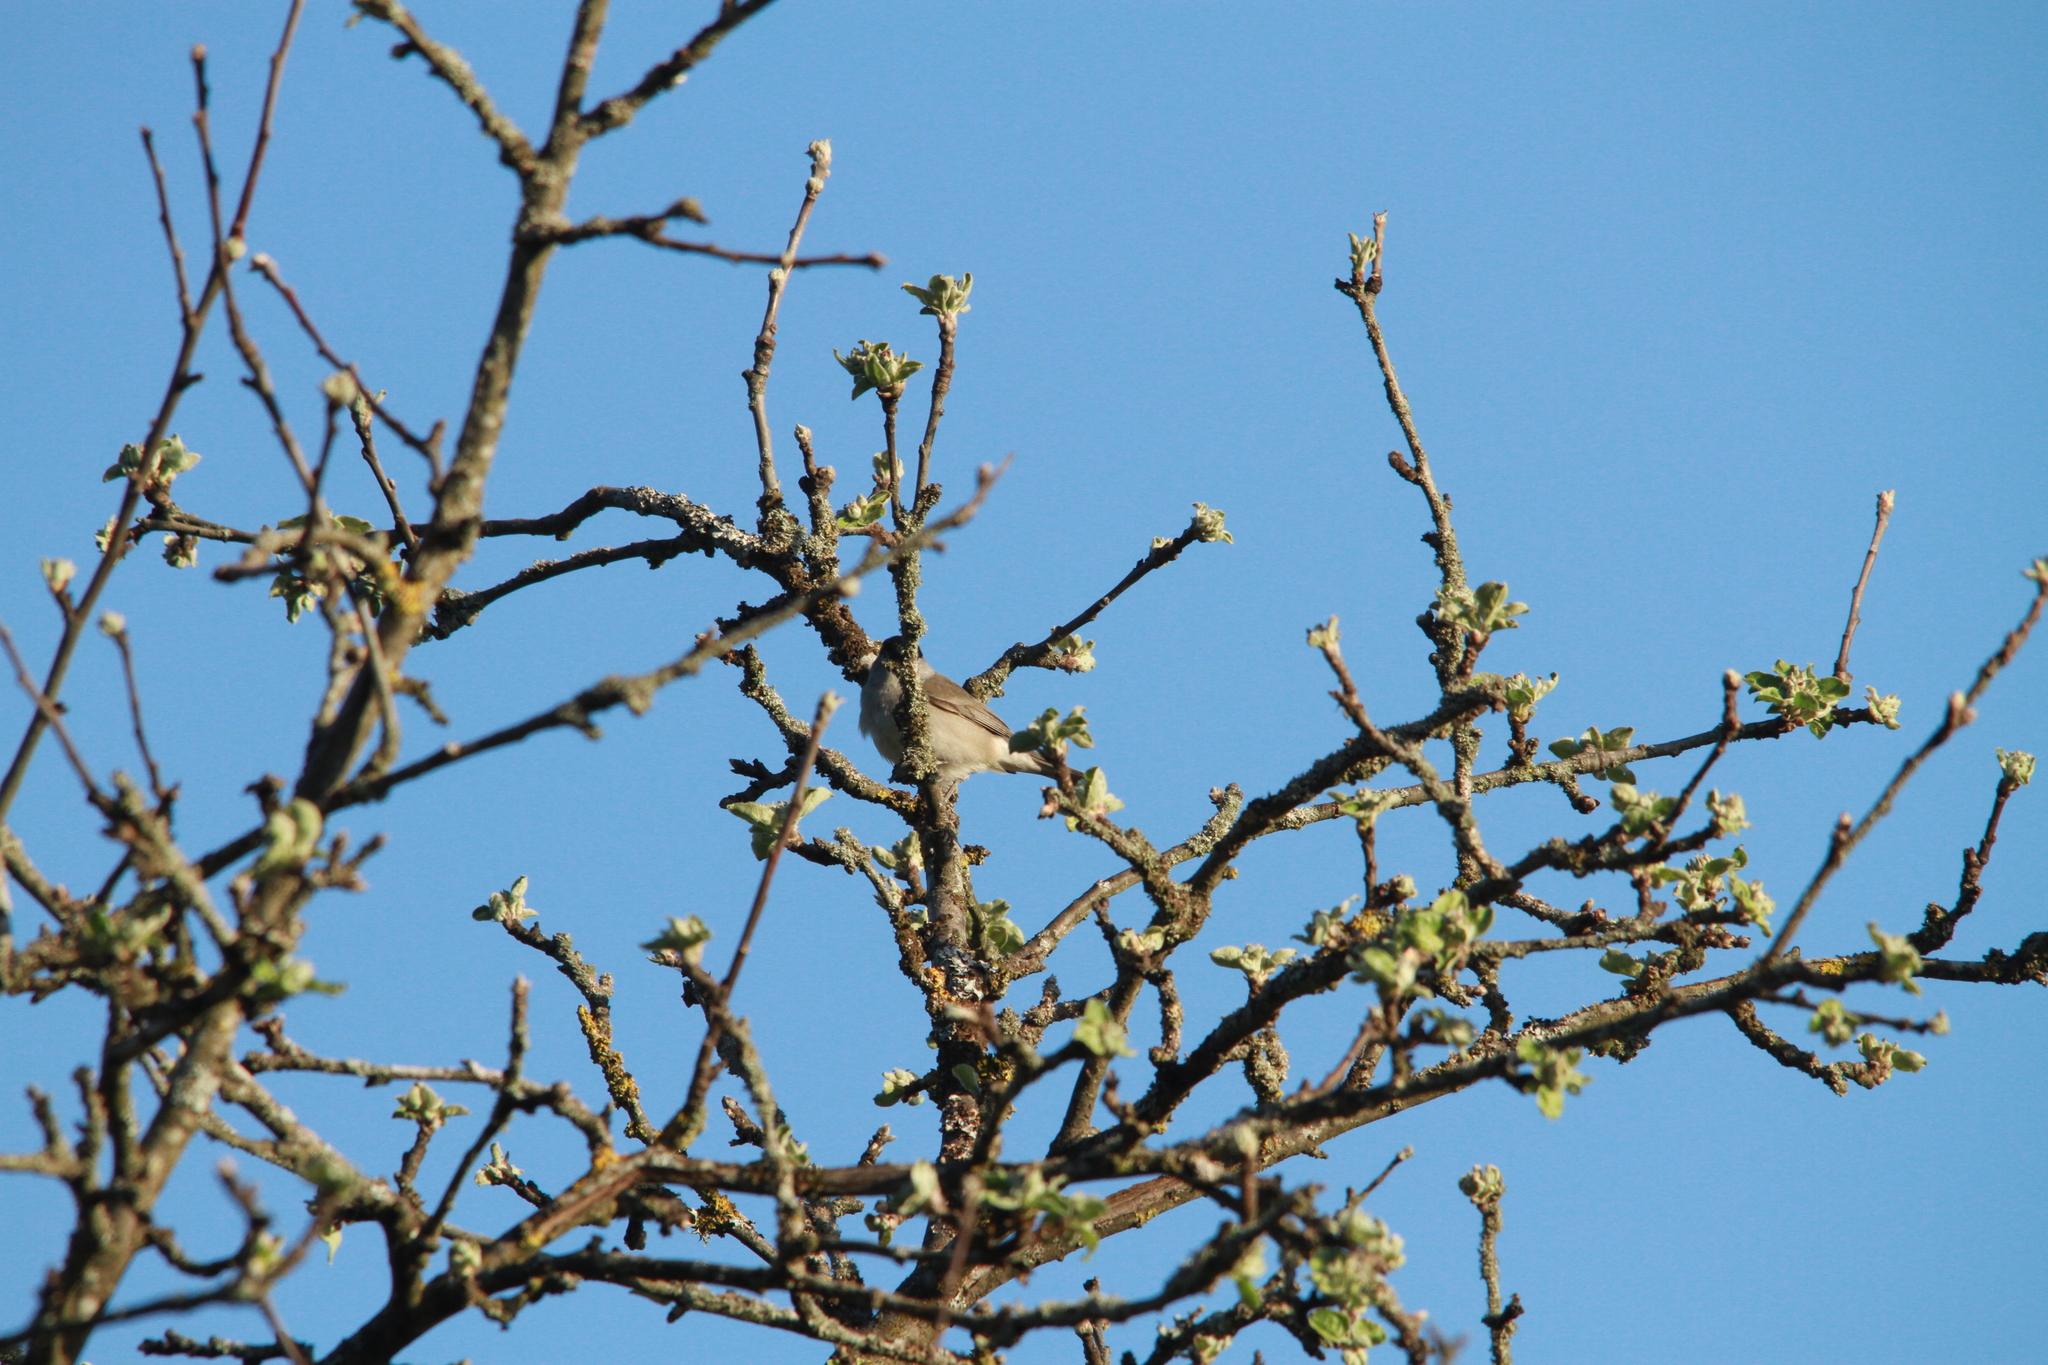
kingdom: Animalia
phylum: Chordata
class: Aves
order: Passeriformes
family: Sylviidae
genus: Sylvia
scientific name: Sylvia atricapilla
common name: Eurasian blackcap
